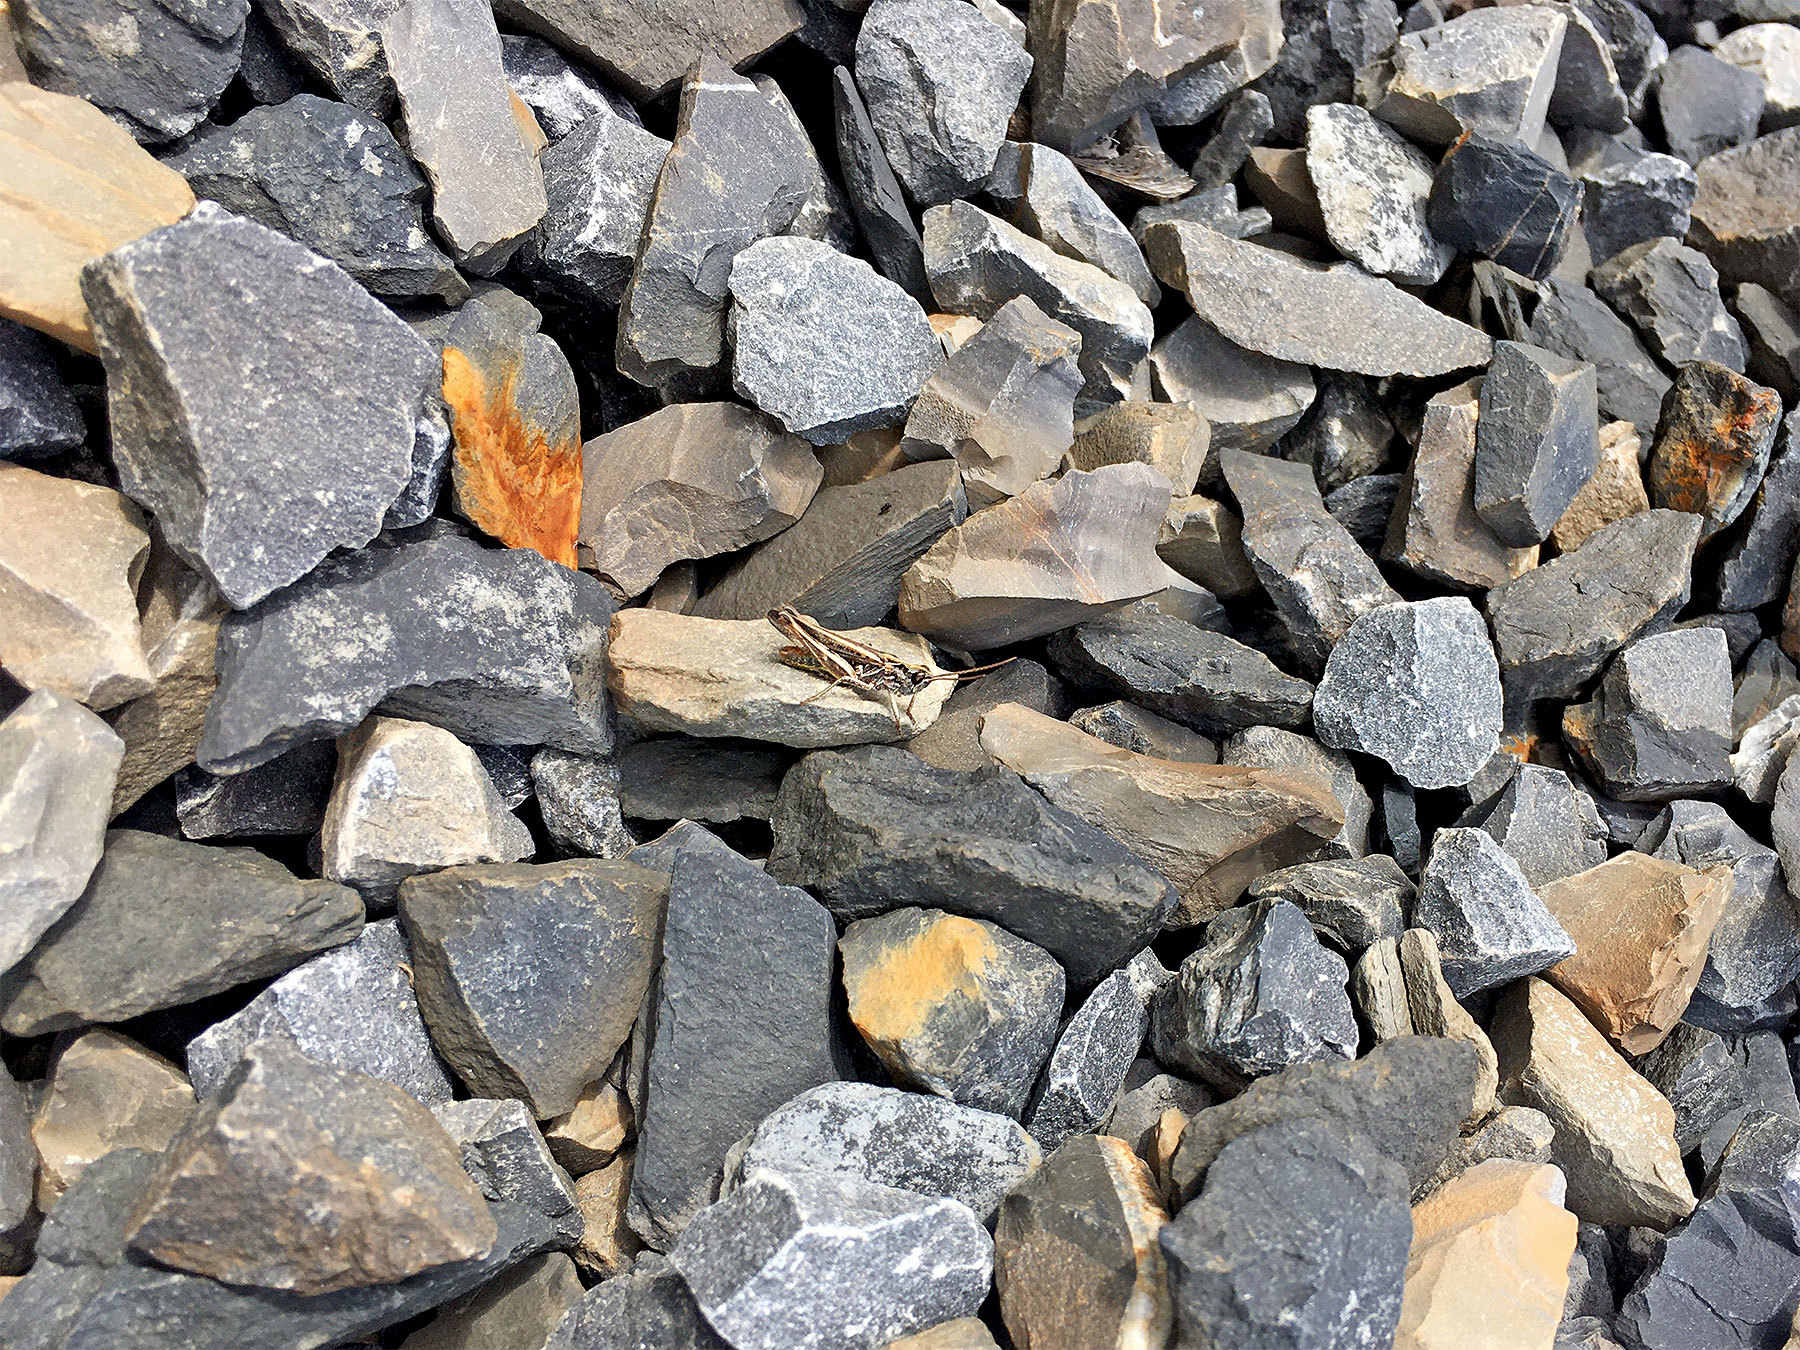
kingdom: Animalia
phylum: Arthropoda
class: Insecta
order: Orthoptera
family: Acrididae
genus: Chorthippus
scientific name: Chorthippus biguttulus
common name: Bow-winged grasshopper
